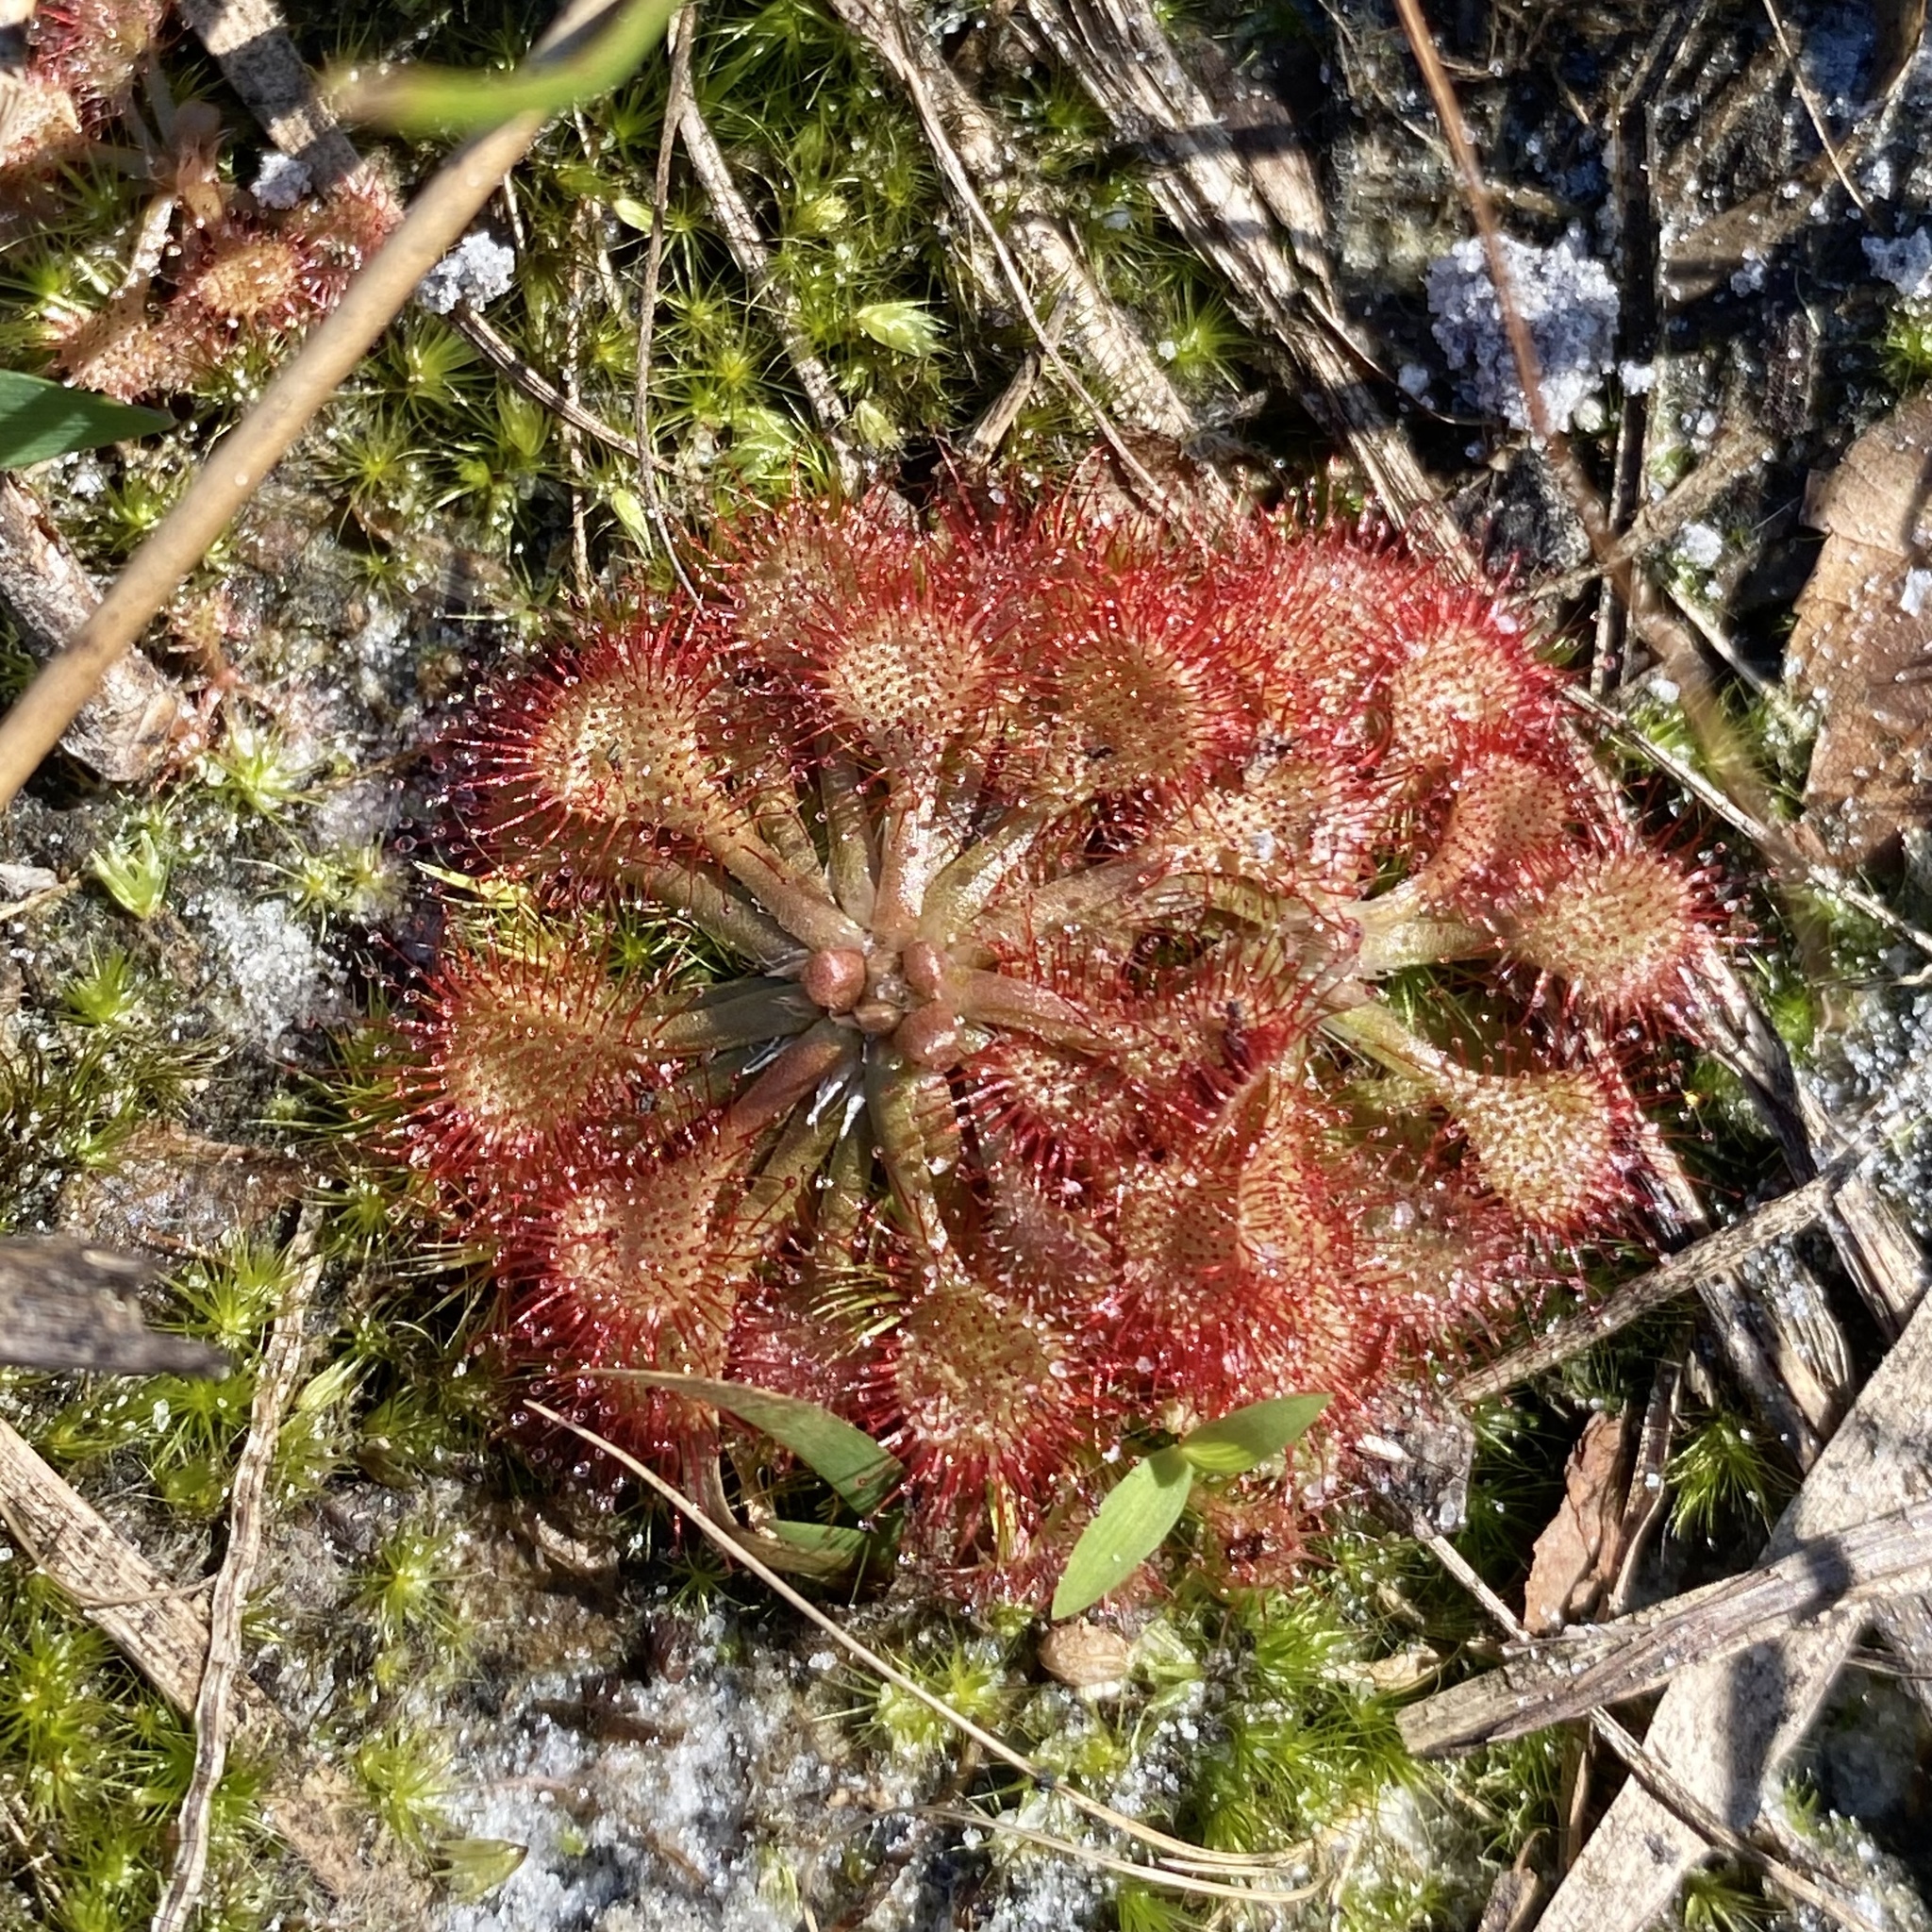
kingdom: Plantae
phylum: Tracheophyta
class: Magnoliopsida
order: Caryophyllales
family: Droseraceae
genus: Drosera
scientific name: Drosera capillaris
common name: Pink sundew
